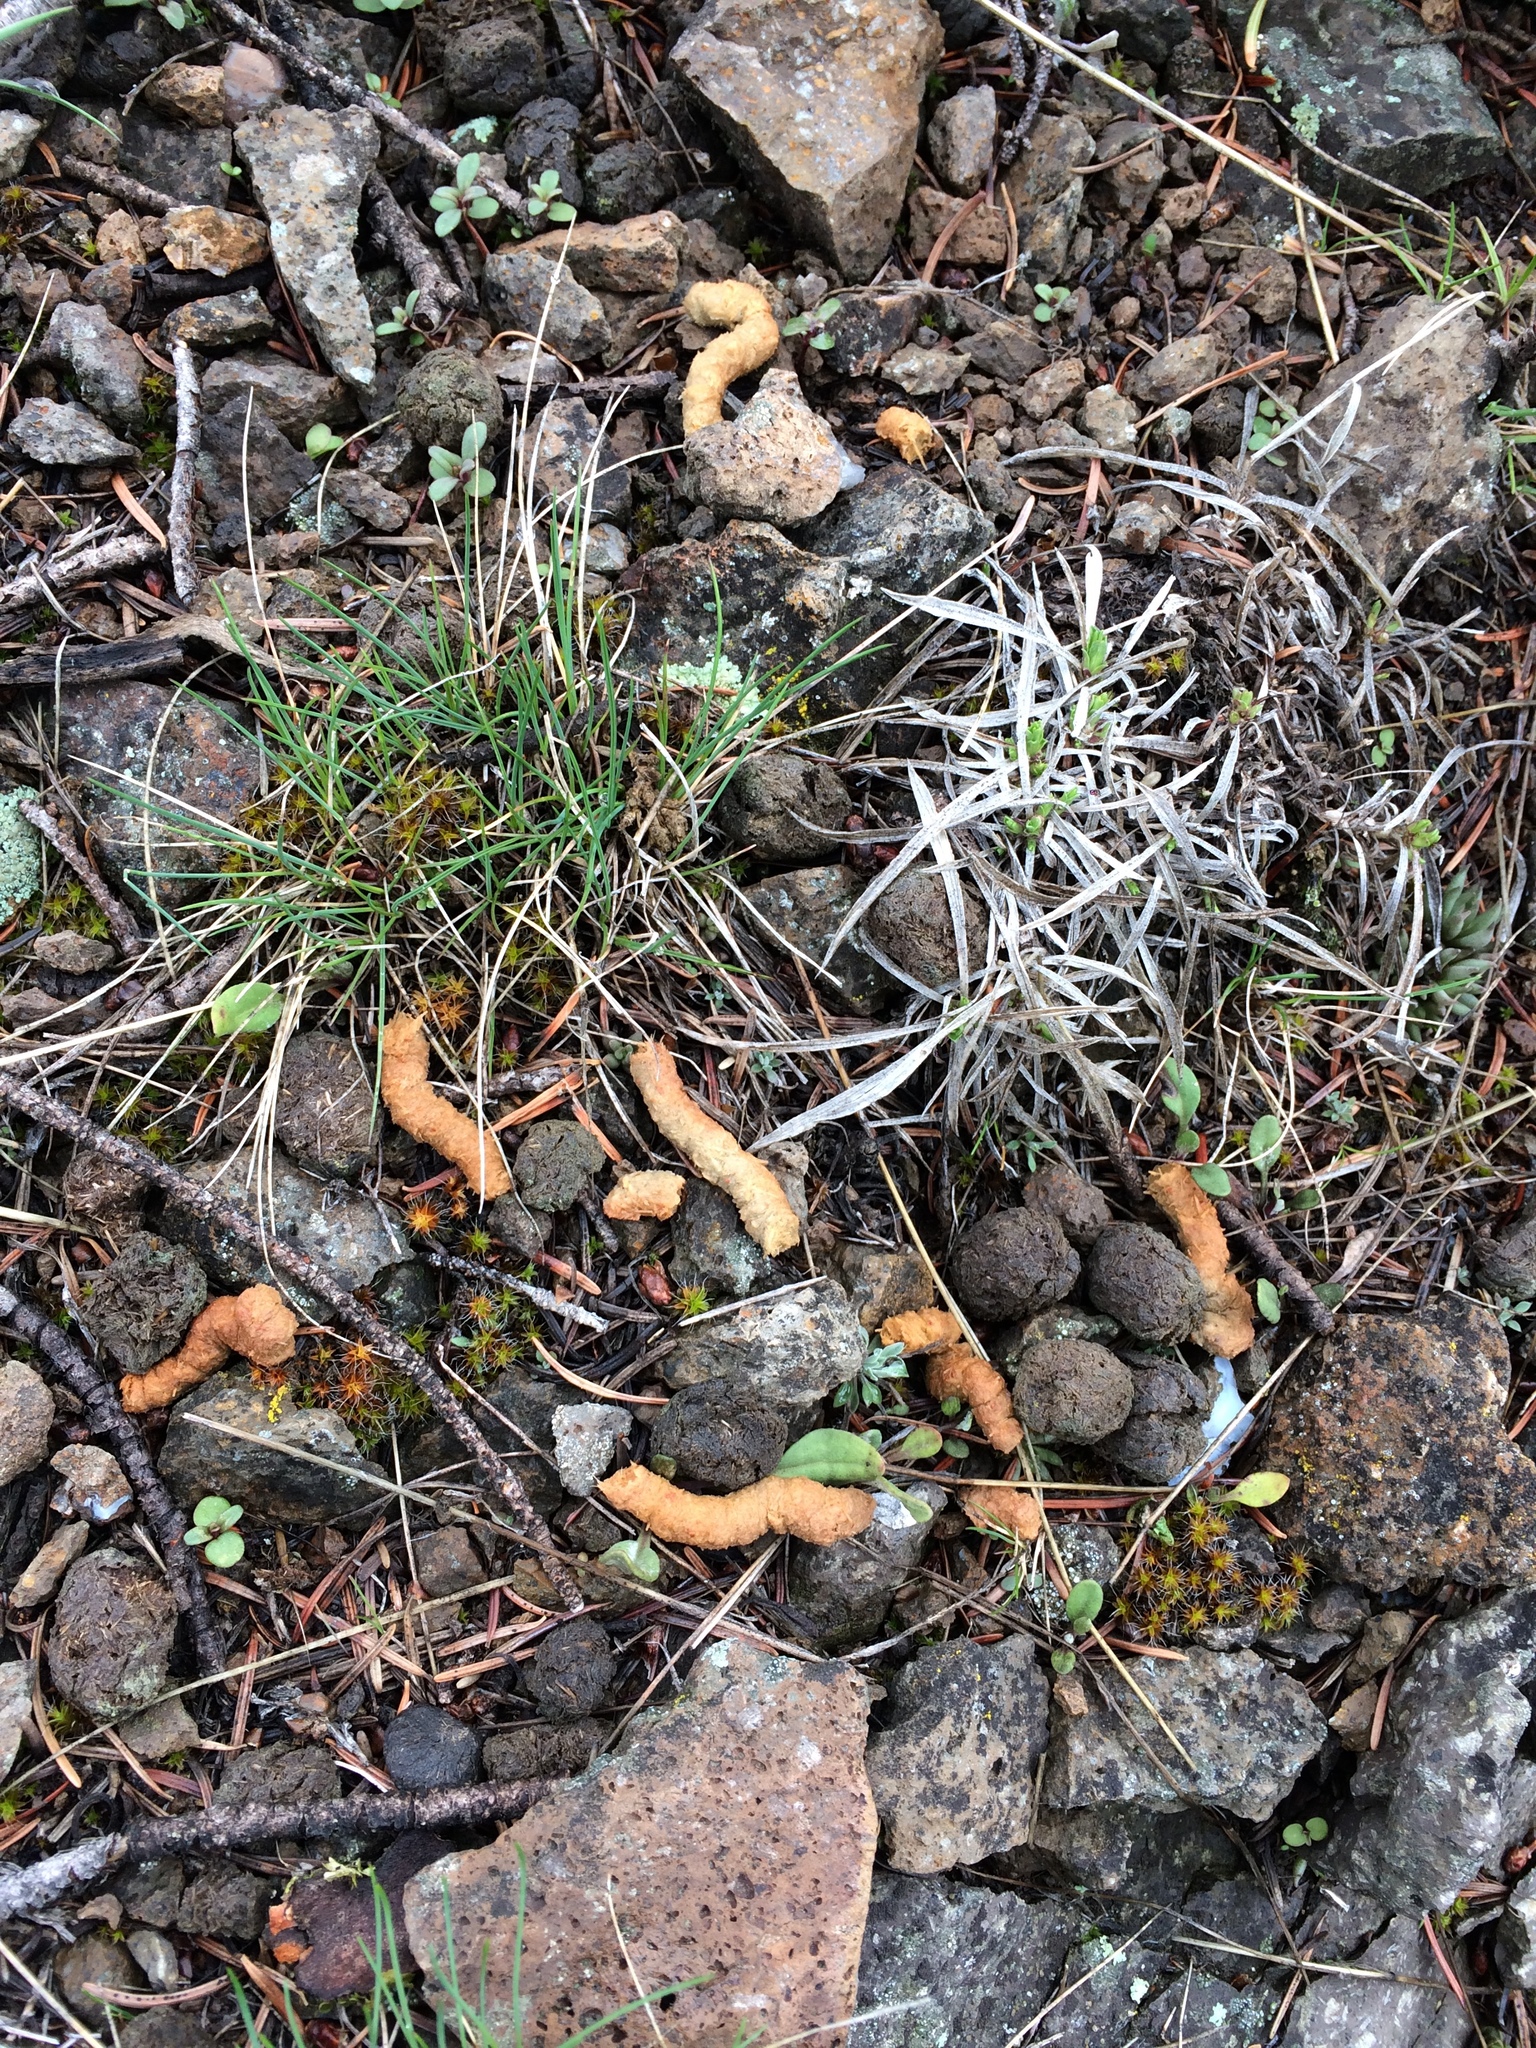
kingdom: Animalia
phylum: Chordata
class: Aves
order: Galliformes
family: Phasianidae
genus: Dendragapus
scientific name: Dendragapus obscurus
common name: Dusky grouse
